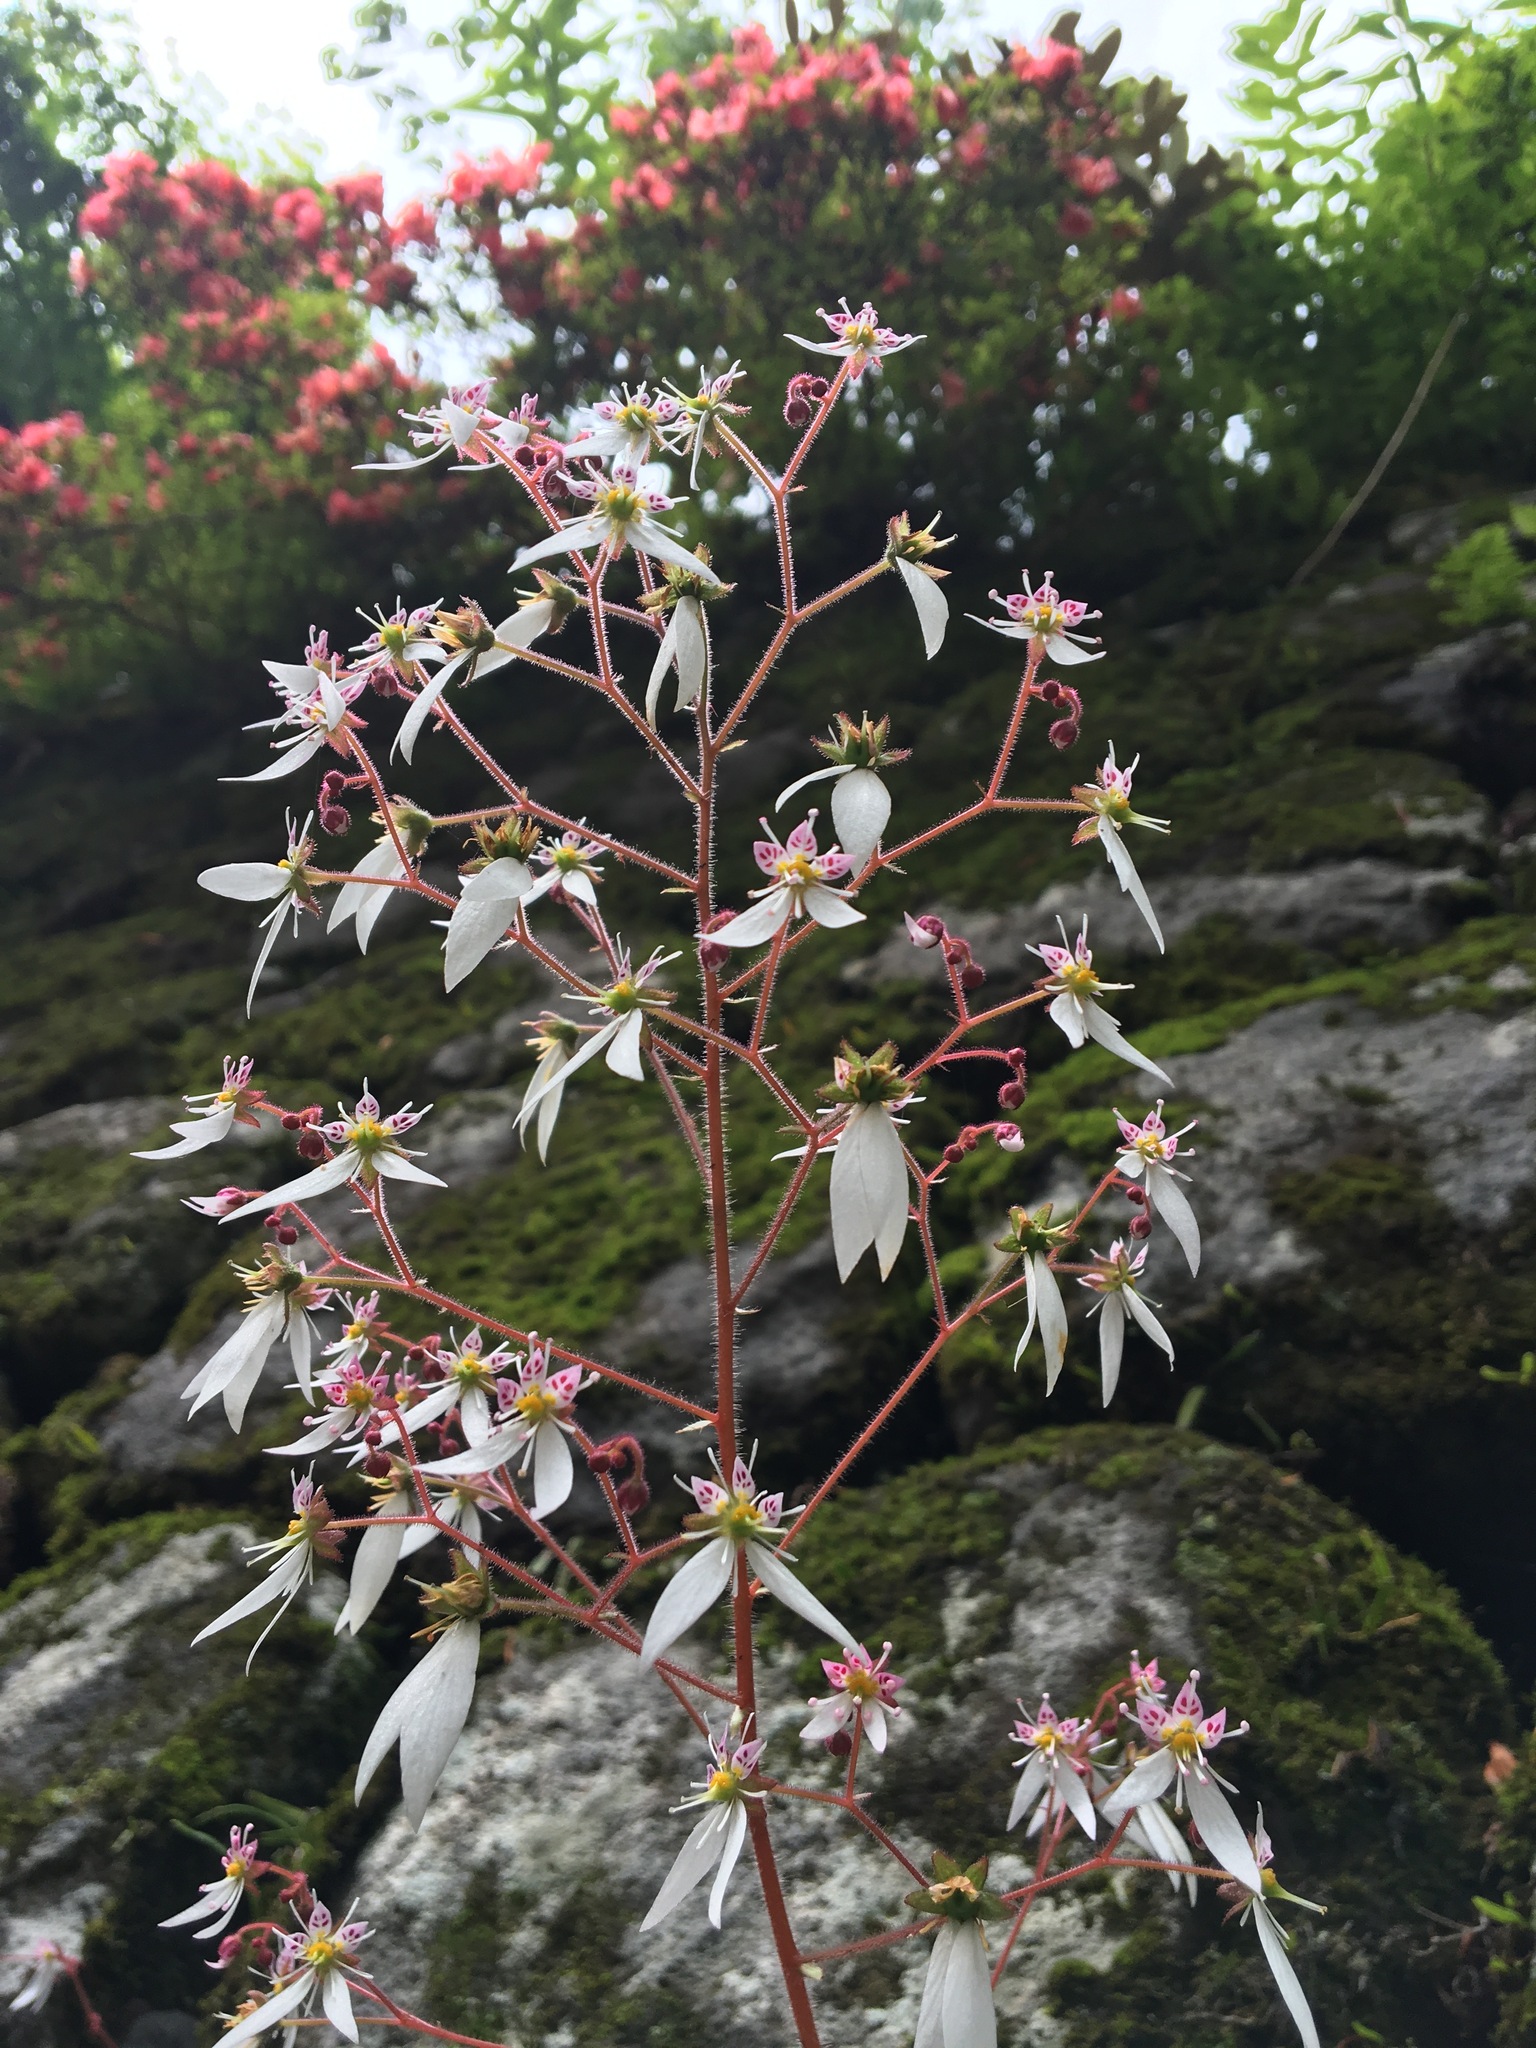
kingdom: Plantae
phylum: Tracheophyta
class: Magnoliopsida
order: Saxifragales
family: Saxifragaceae
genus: Saxifraga
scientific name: Saxifraga stolonifera
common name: Creeping saxifrage
